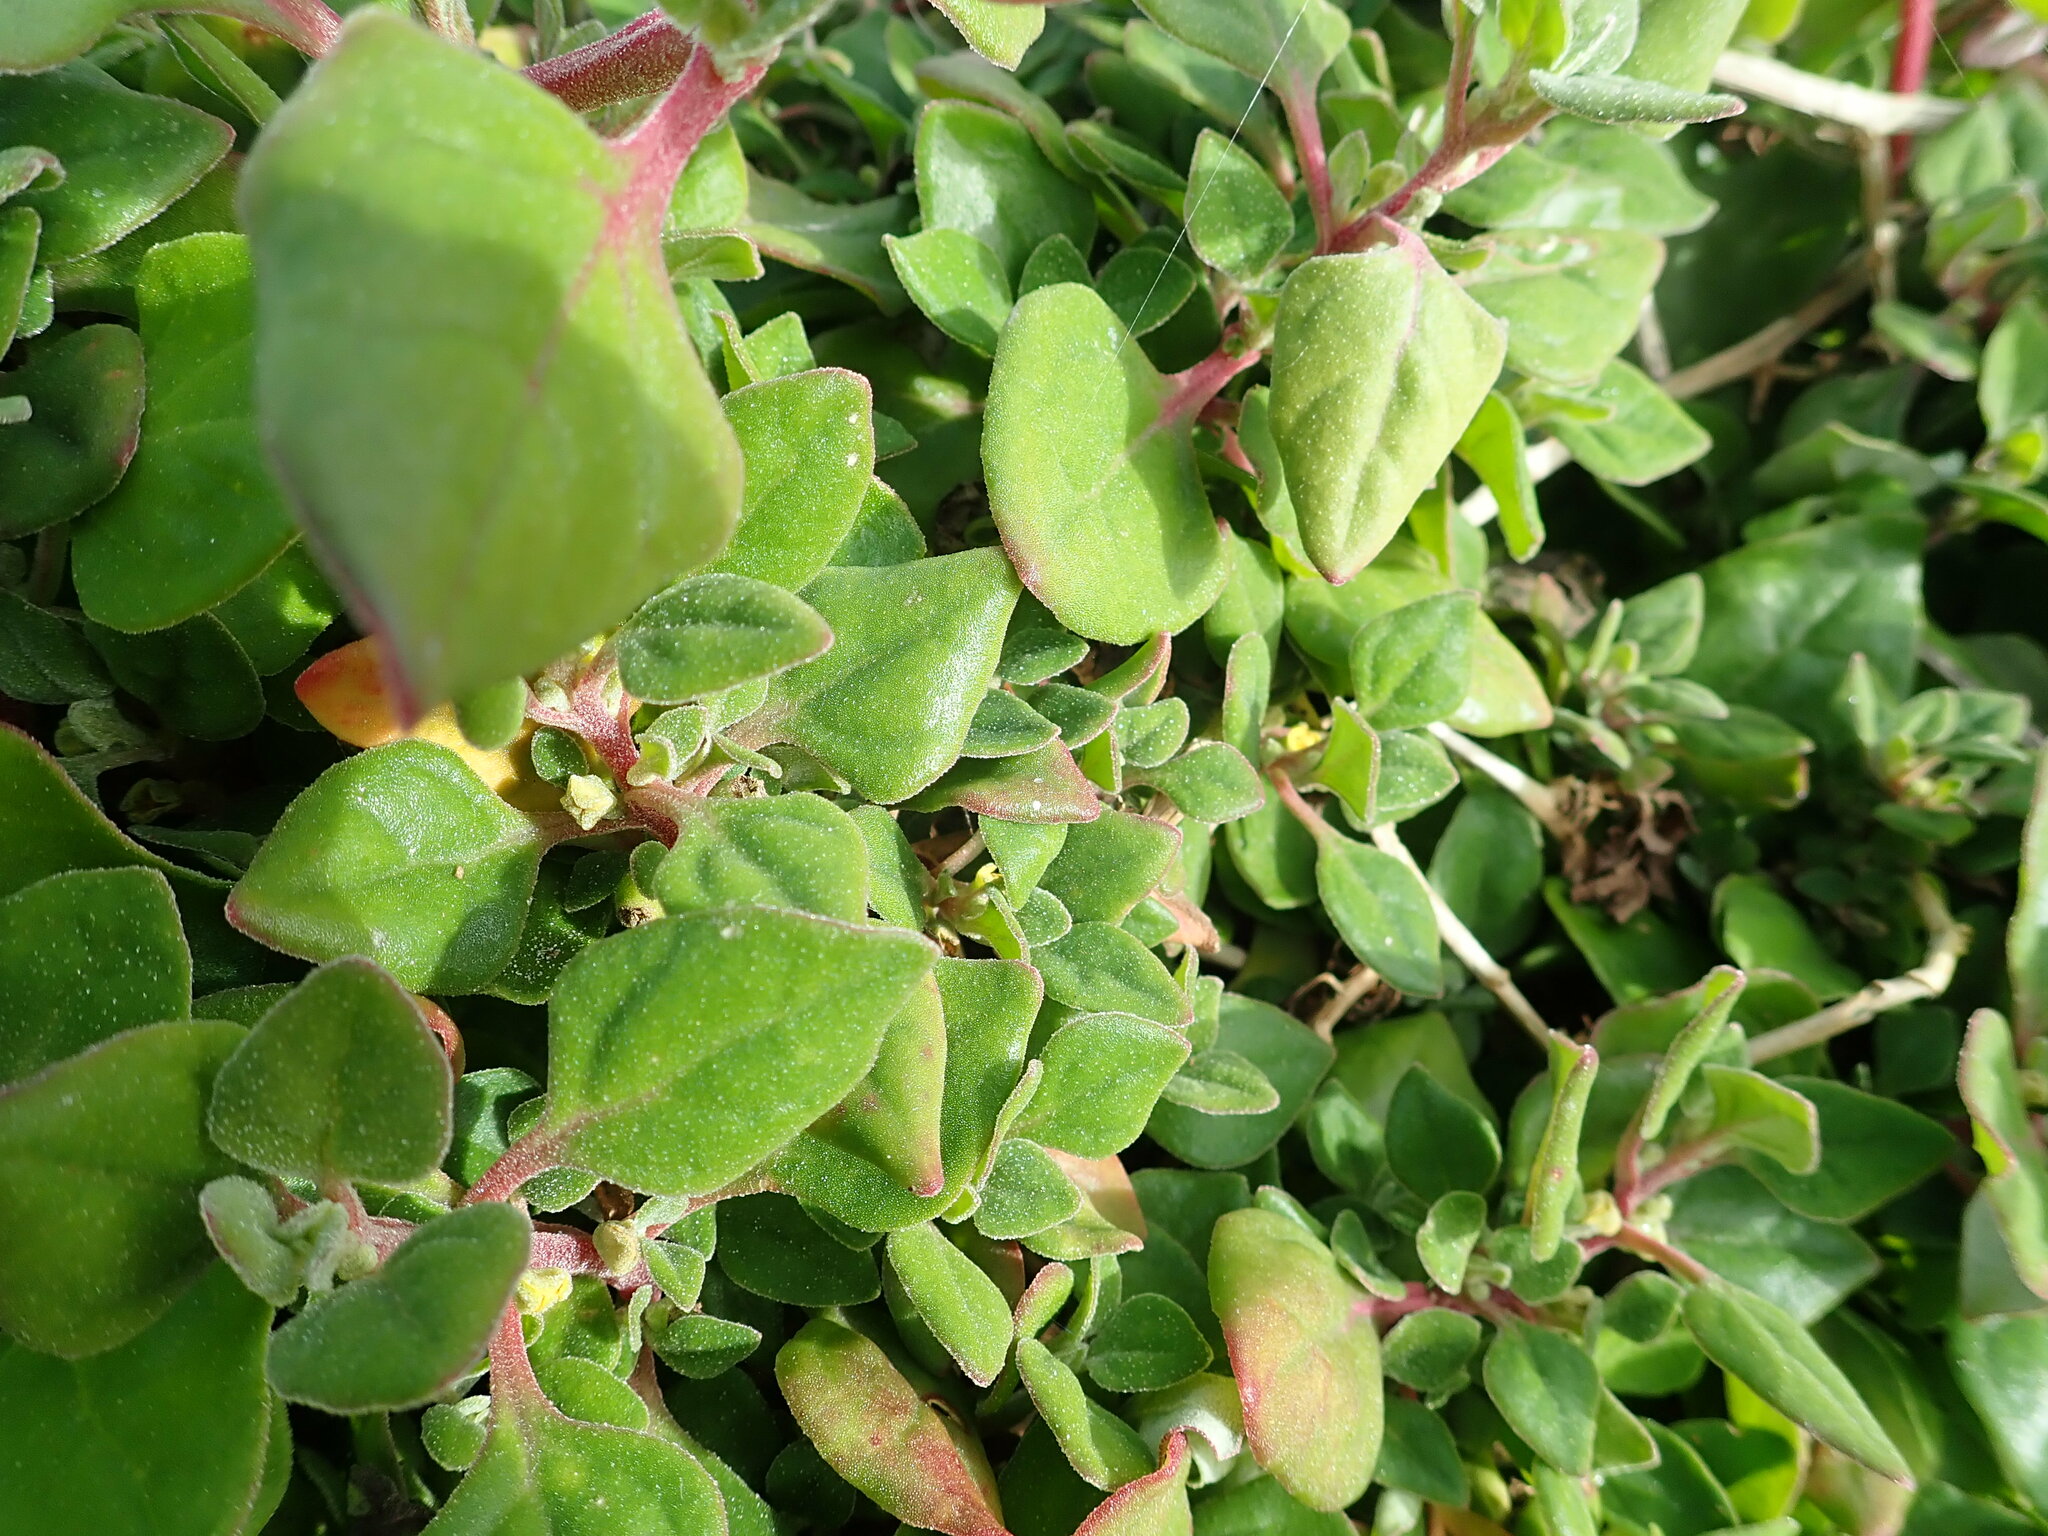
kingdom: Plantae
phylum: Tracheophyta
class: Magnoliopsida
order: Caryophyllales
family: Aizoaceae
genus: Tetragonia
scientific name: Tetragonia implexicoma
